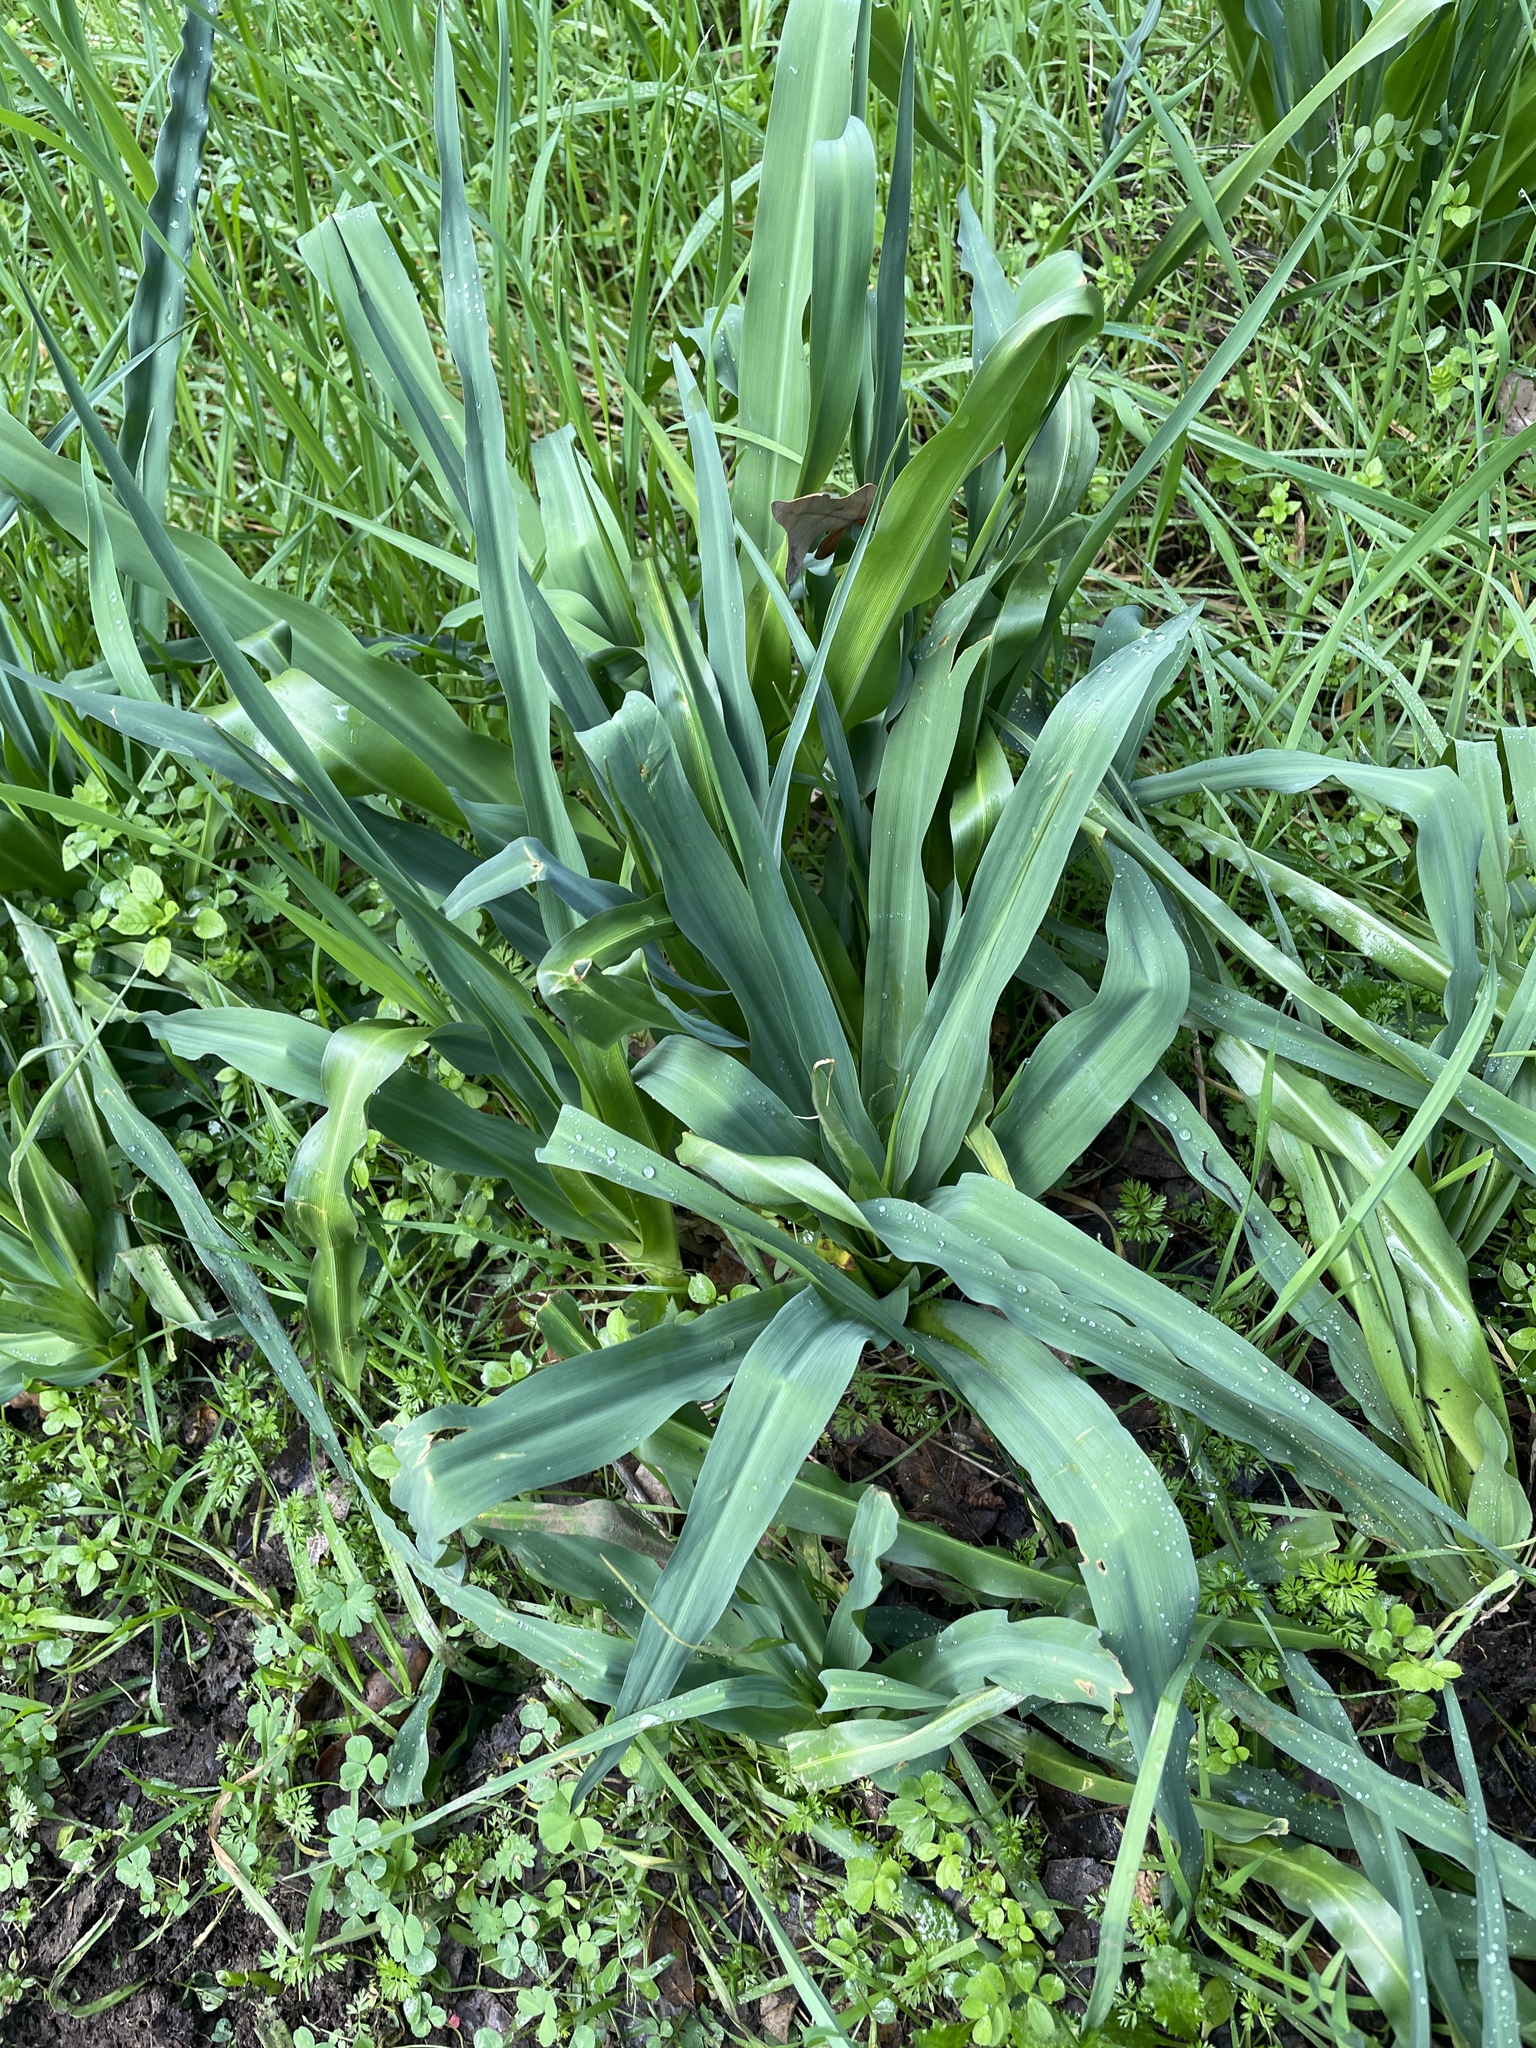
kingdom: Plantae
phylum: Tracheophyta
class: Liliopsida
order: Asparagales
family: Asparagaceae
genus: Chlorogalum
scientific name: Chlorogalum pomeridianum
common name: Amole
